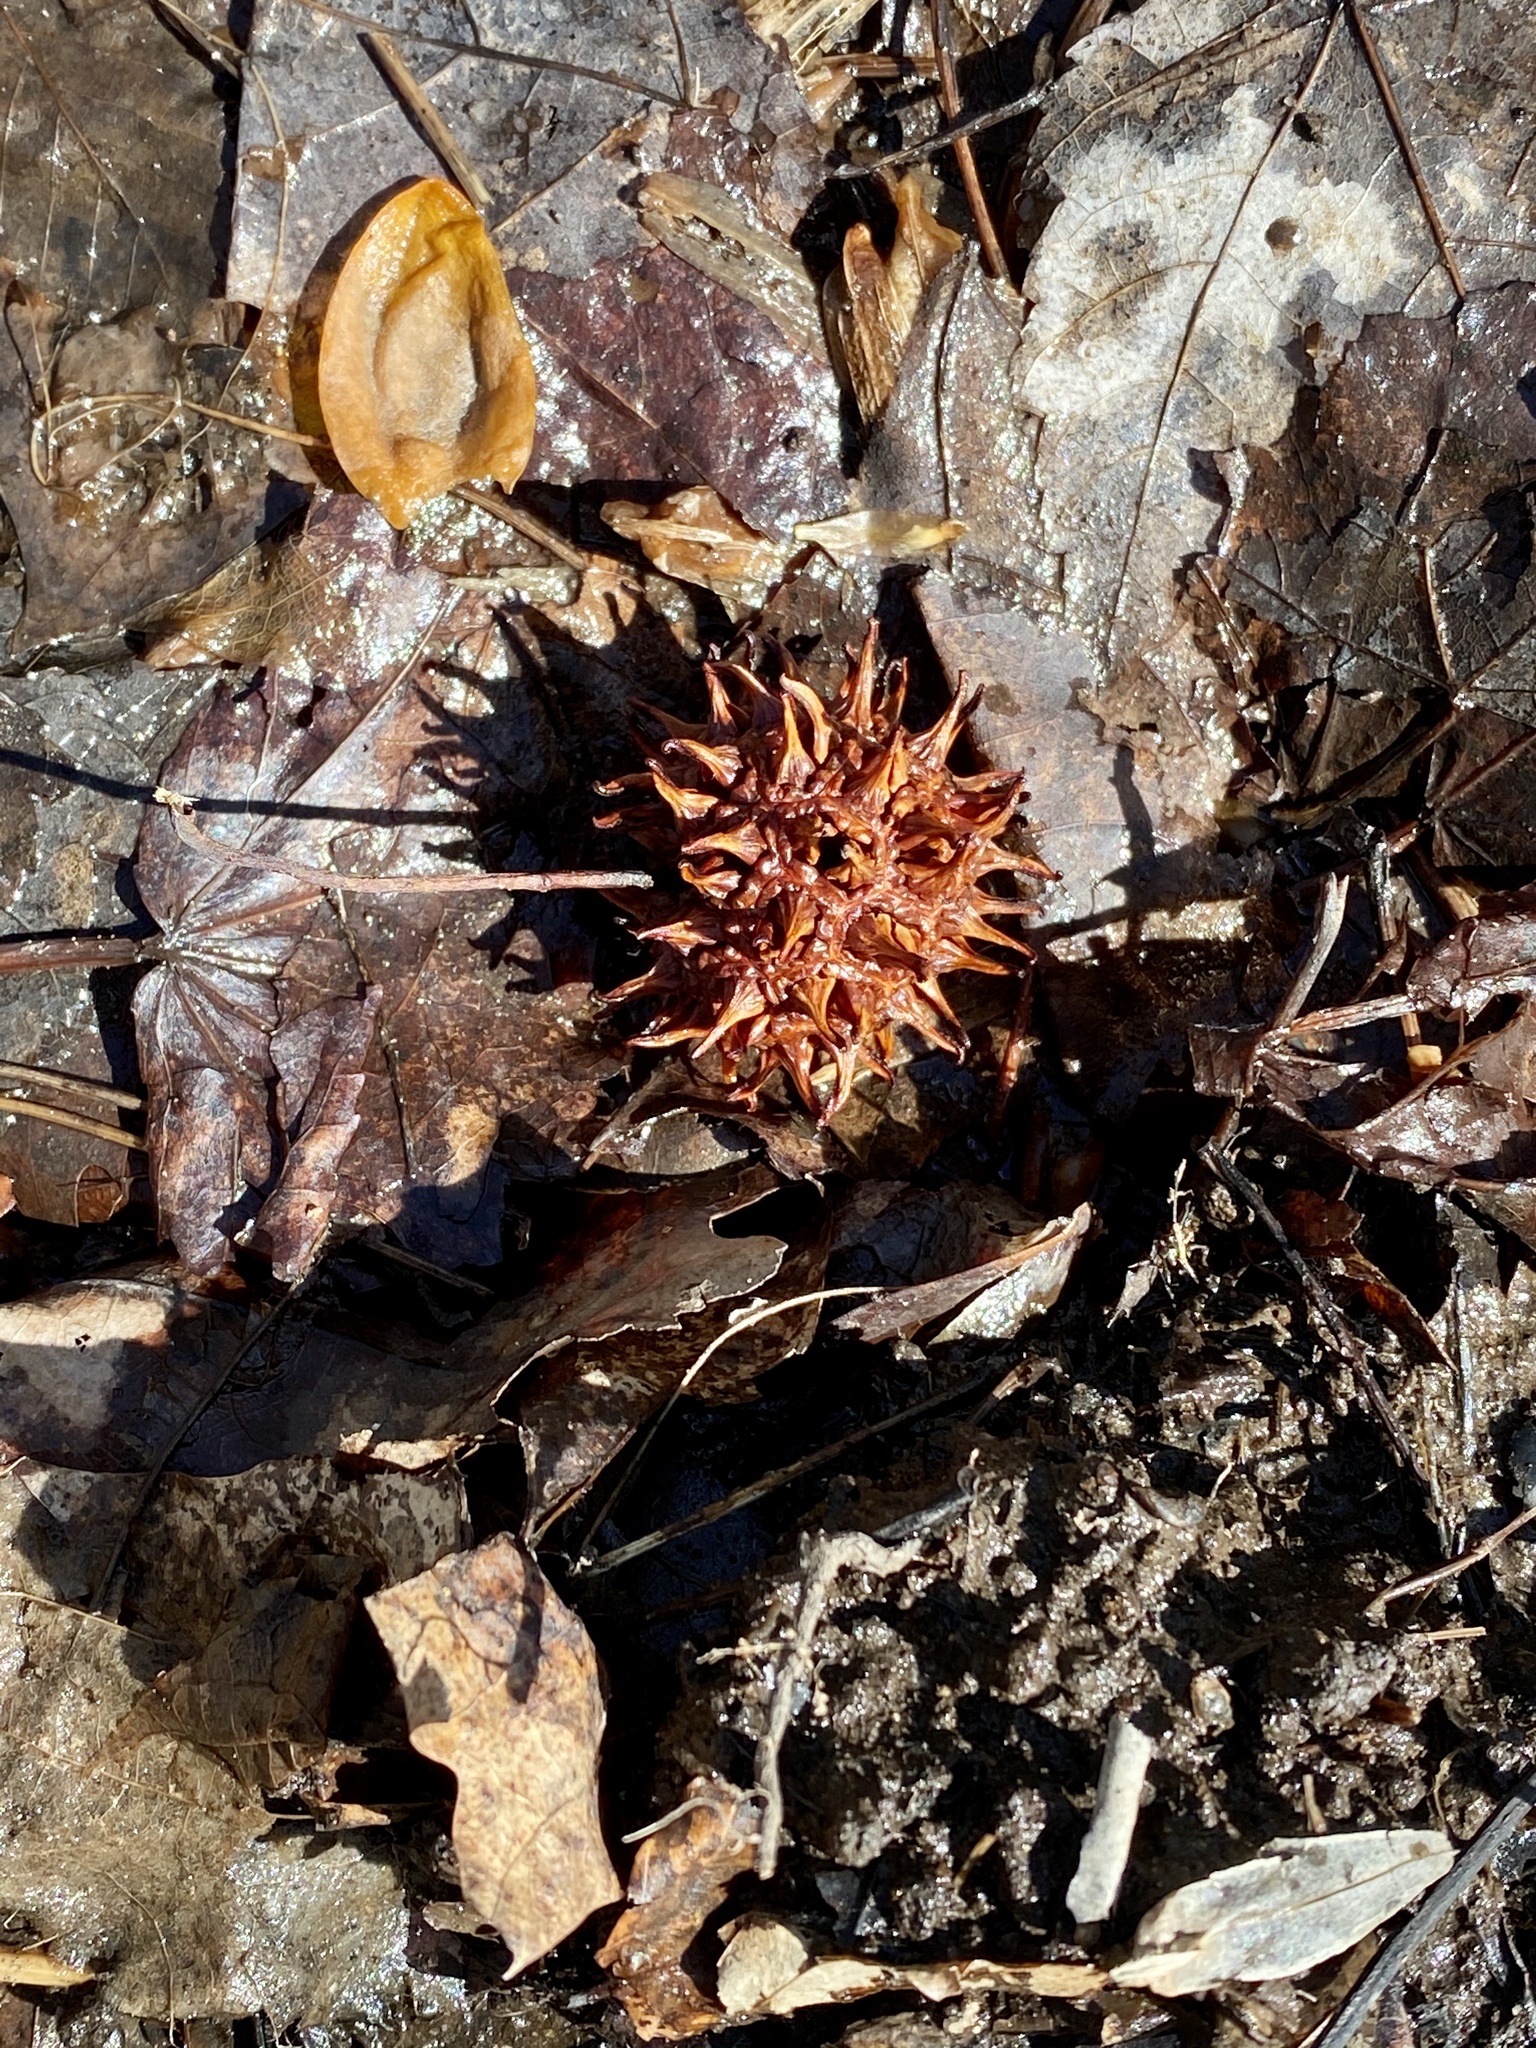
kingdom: Plantae
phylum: Tracheophyta
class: Magnoliopsida
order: Saxifragales
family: Altingiaceae
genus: Liquidambar
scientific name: Liquidambar styraciflua
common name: Sweet gum
